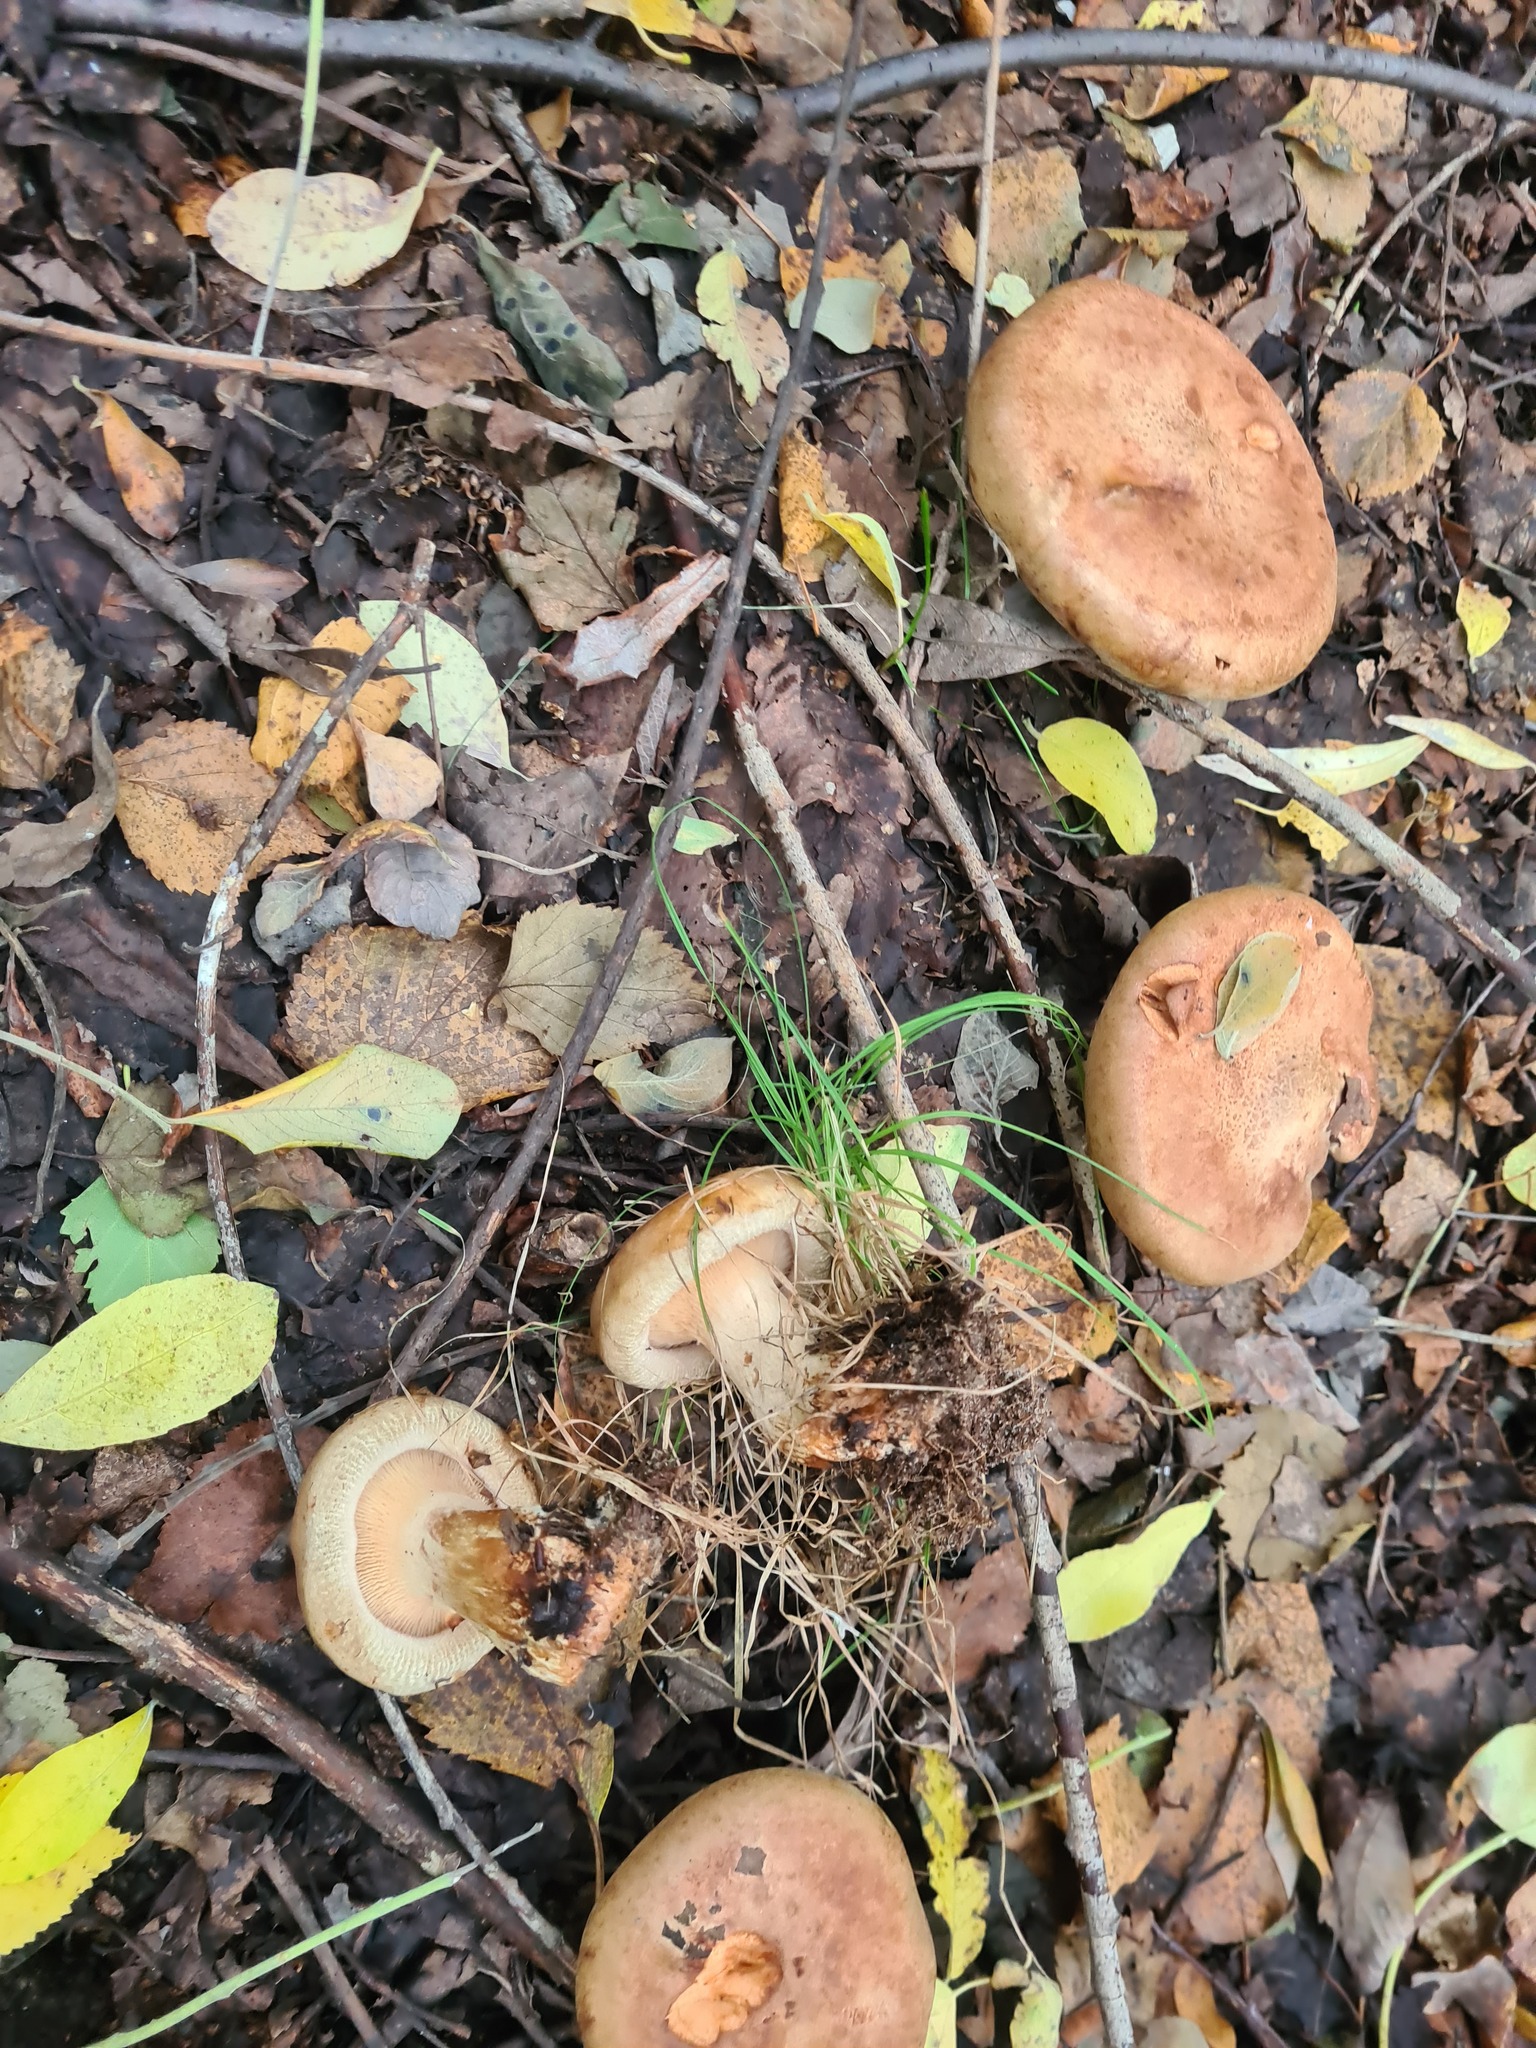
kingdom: Fungi
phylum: Basidiomycota
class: Agaricomycetes
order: Boletales
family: Paxillaceae
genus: Paxillus
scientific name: Paxillus involutus
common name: Brown roll rim
